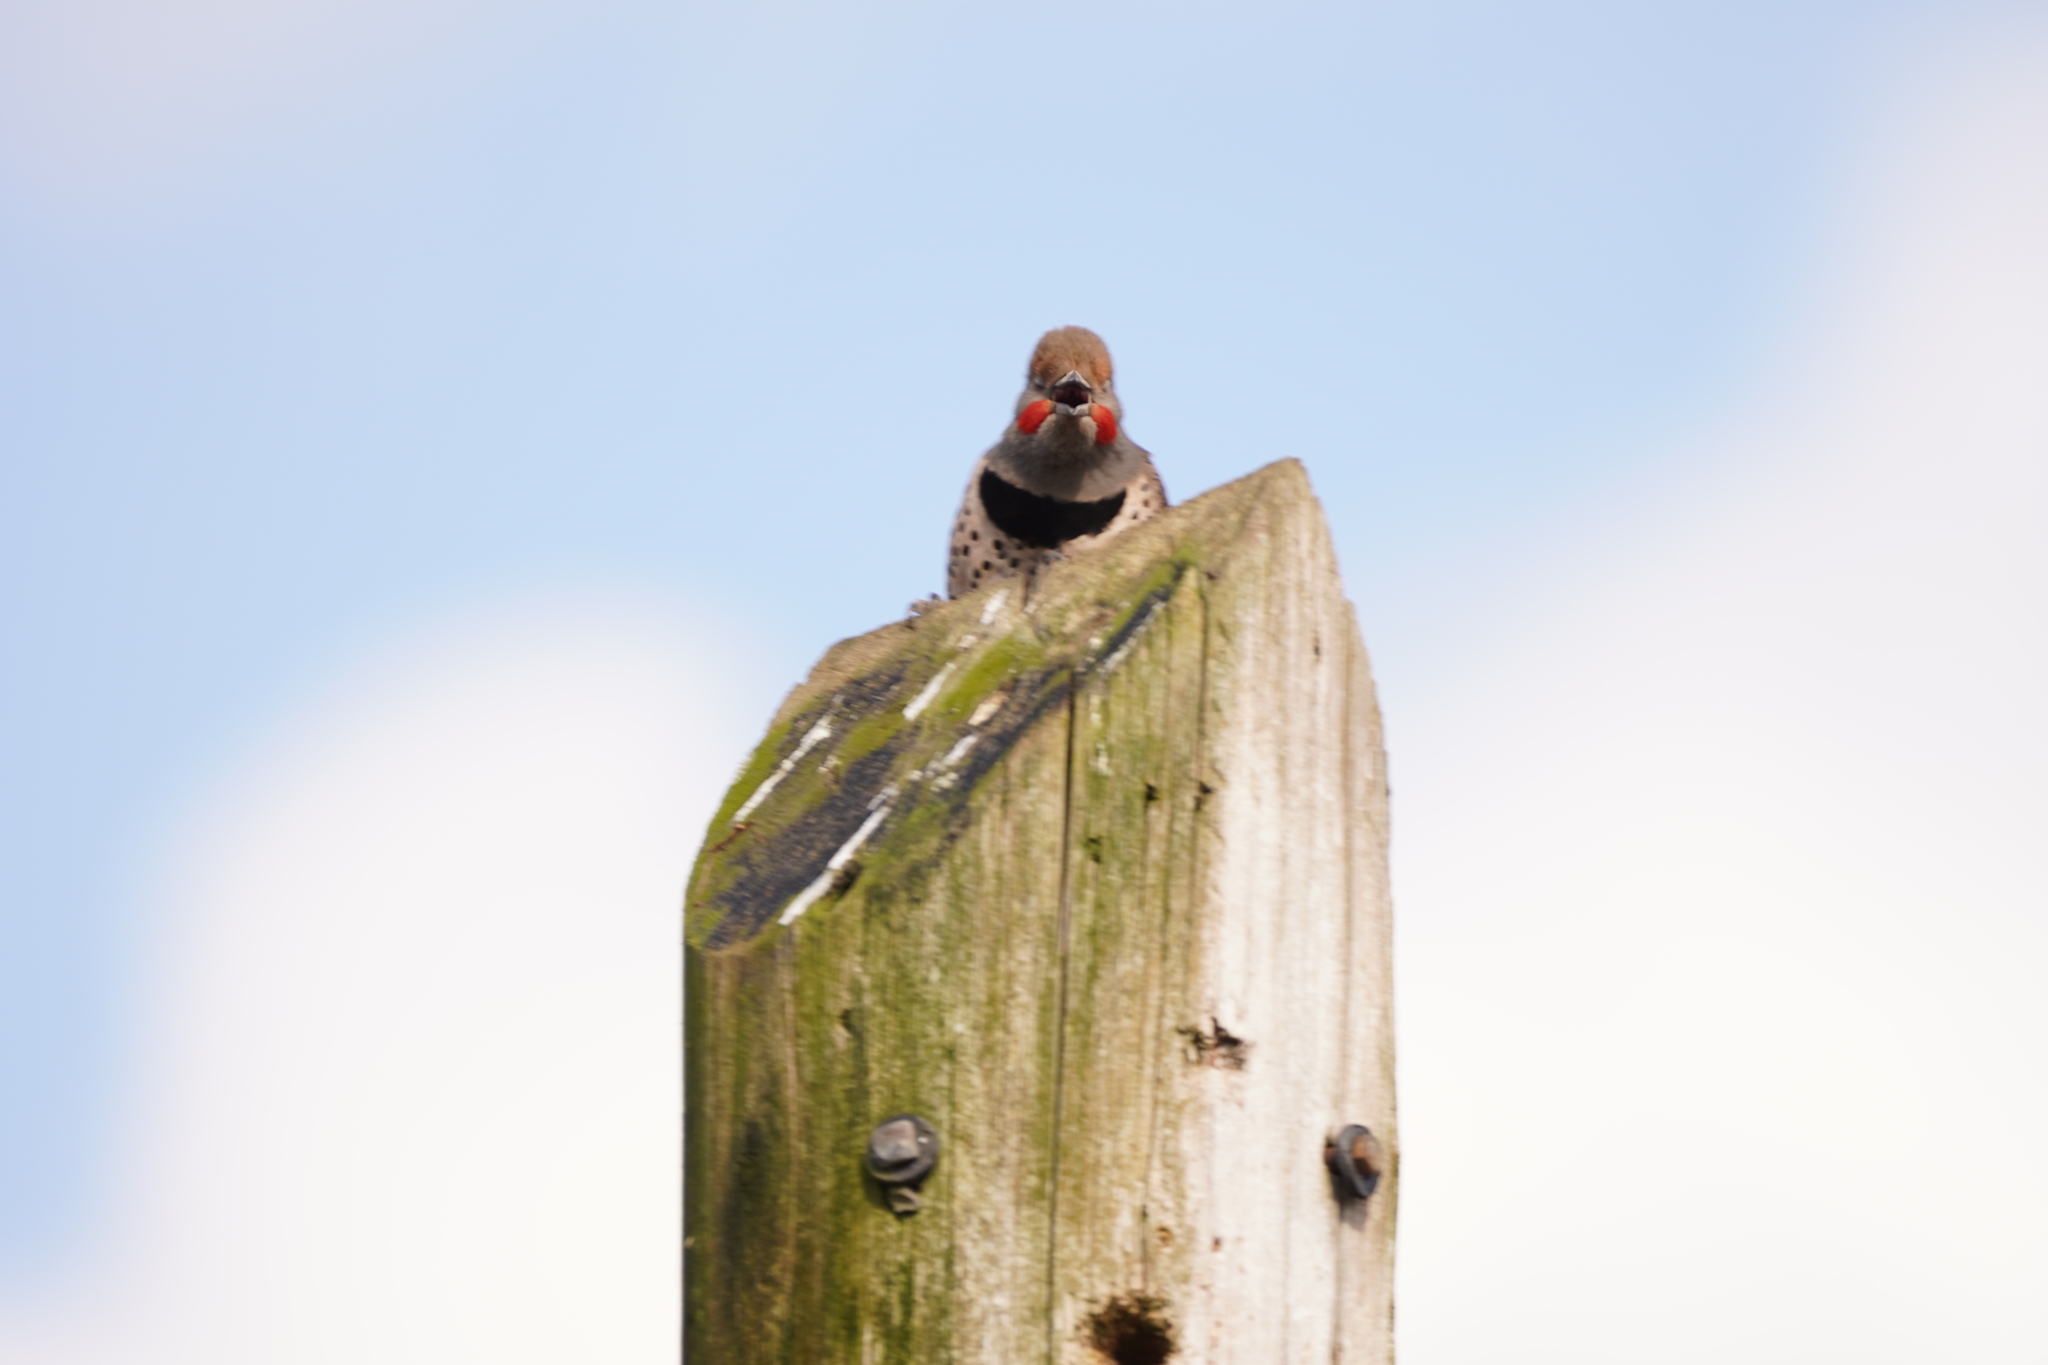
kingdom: Animalia
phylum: Chordata
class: Aves
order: Piciformes
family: Picidae
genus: Colaptes
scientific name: Colaptes auratus
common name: Northern flicker
